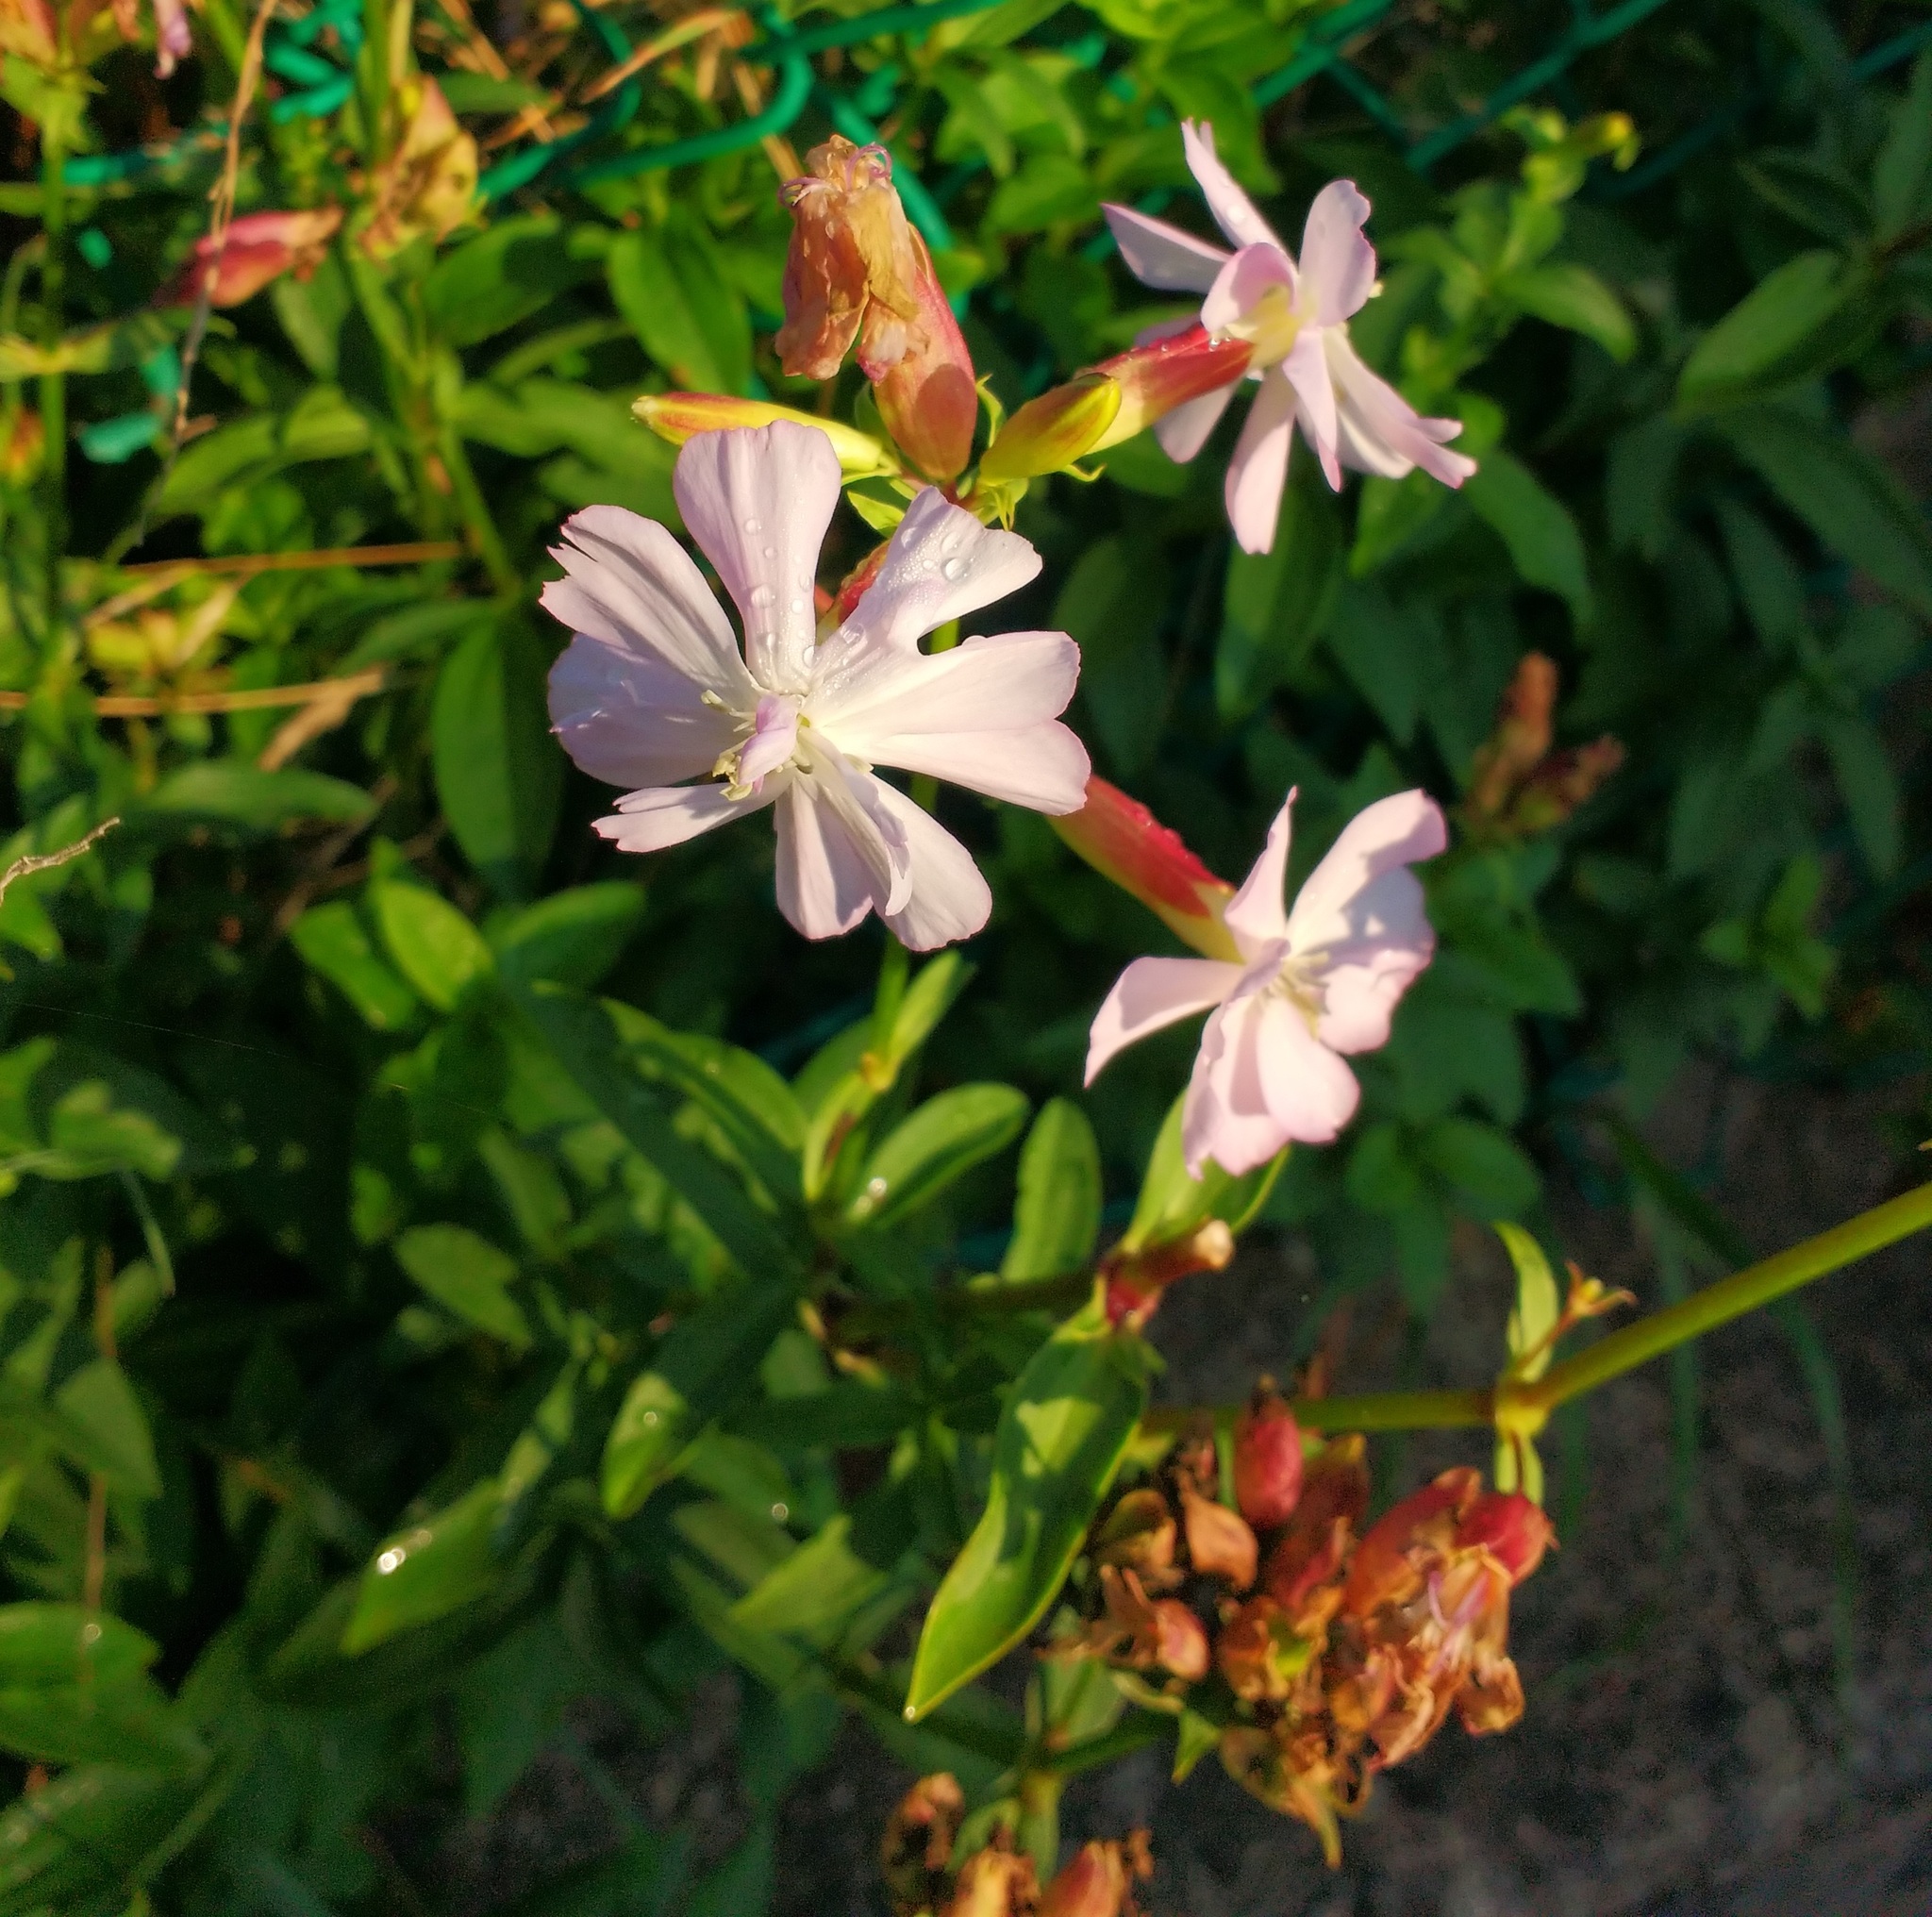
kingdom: Plantae
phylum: Tracheophyta
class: Magnoliopsida
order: Caryophyllales
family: Caryophyllaceae
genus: Saponaria
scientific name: Saponaria officinalis
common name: Soapwort
